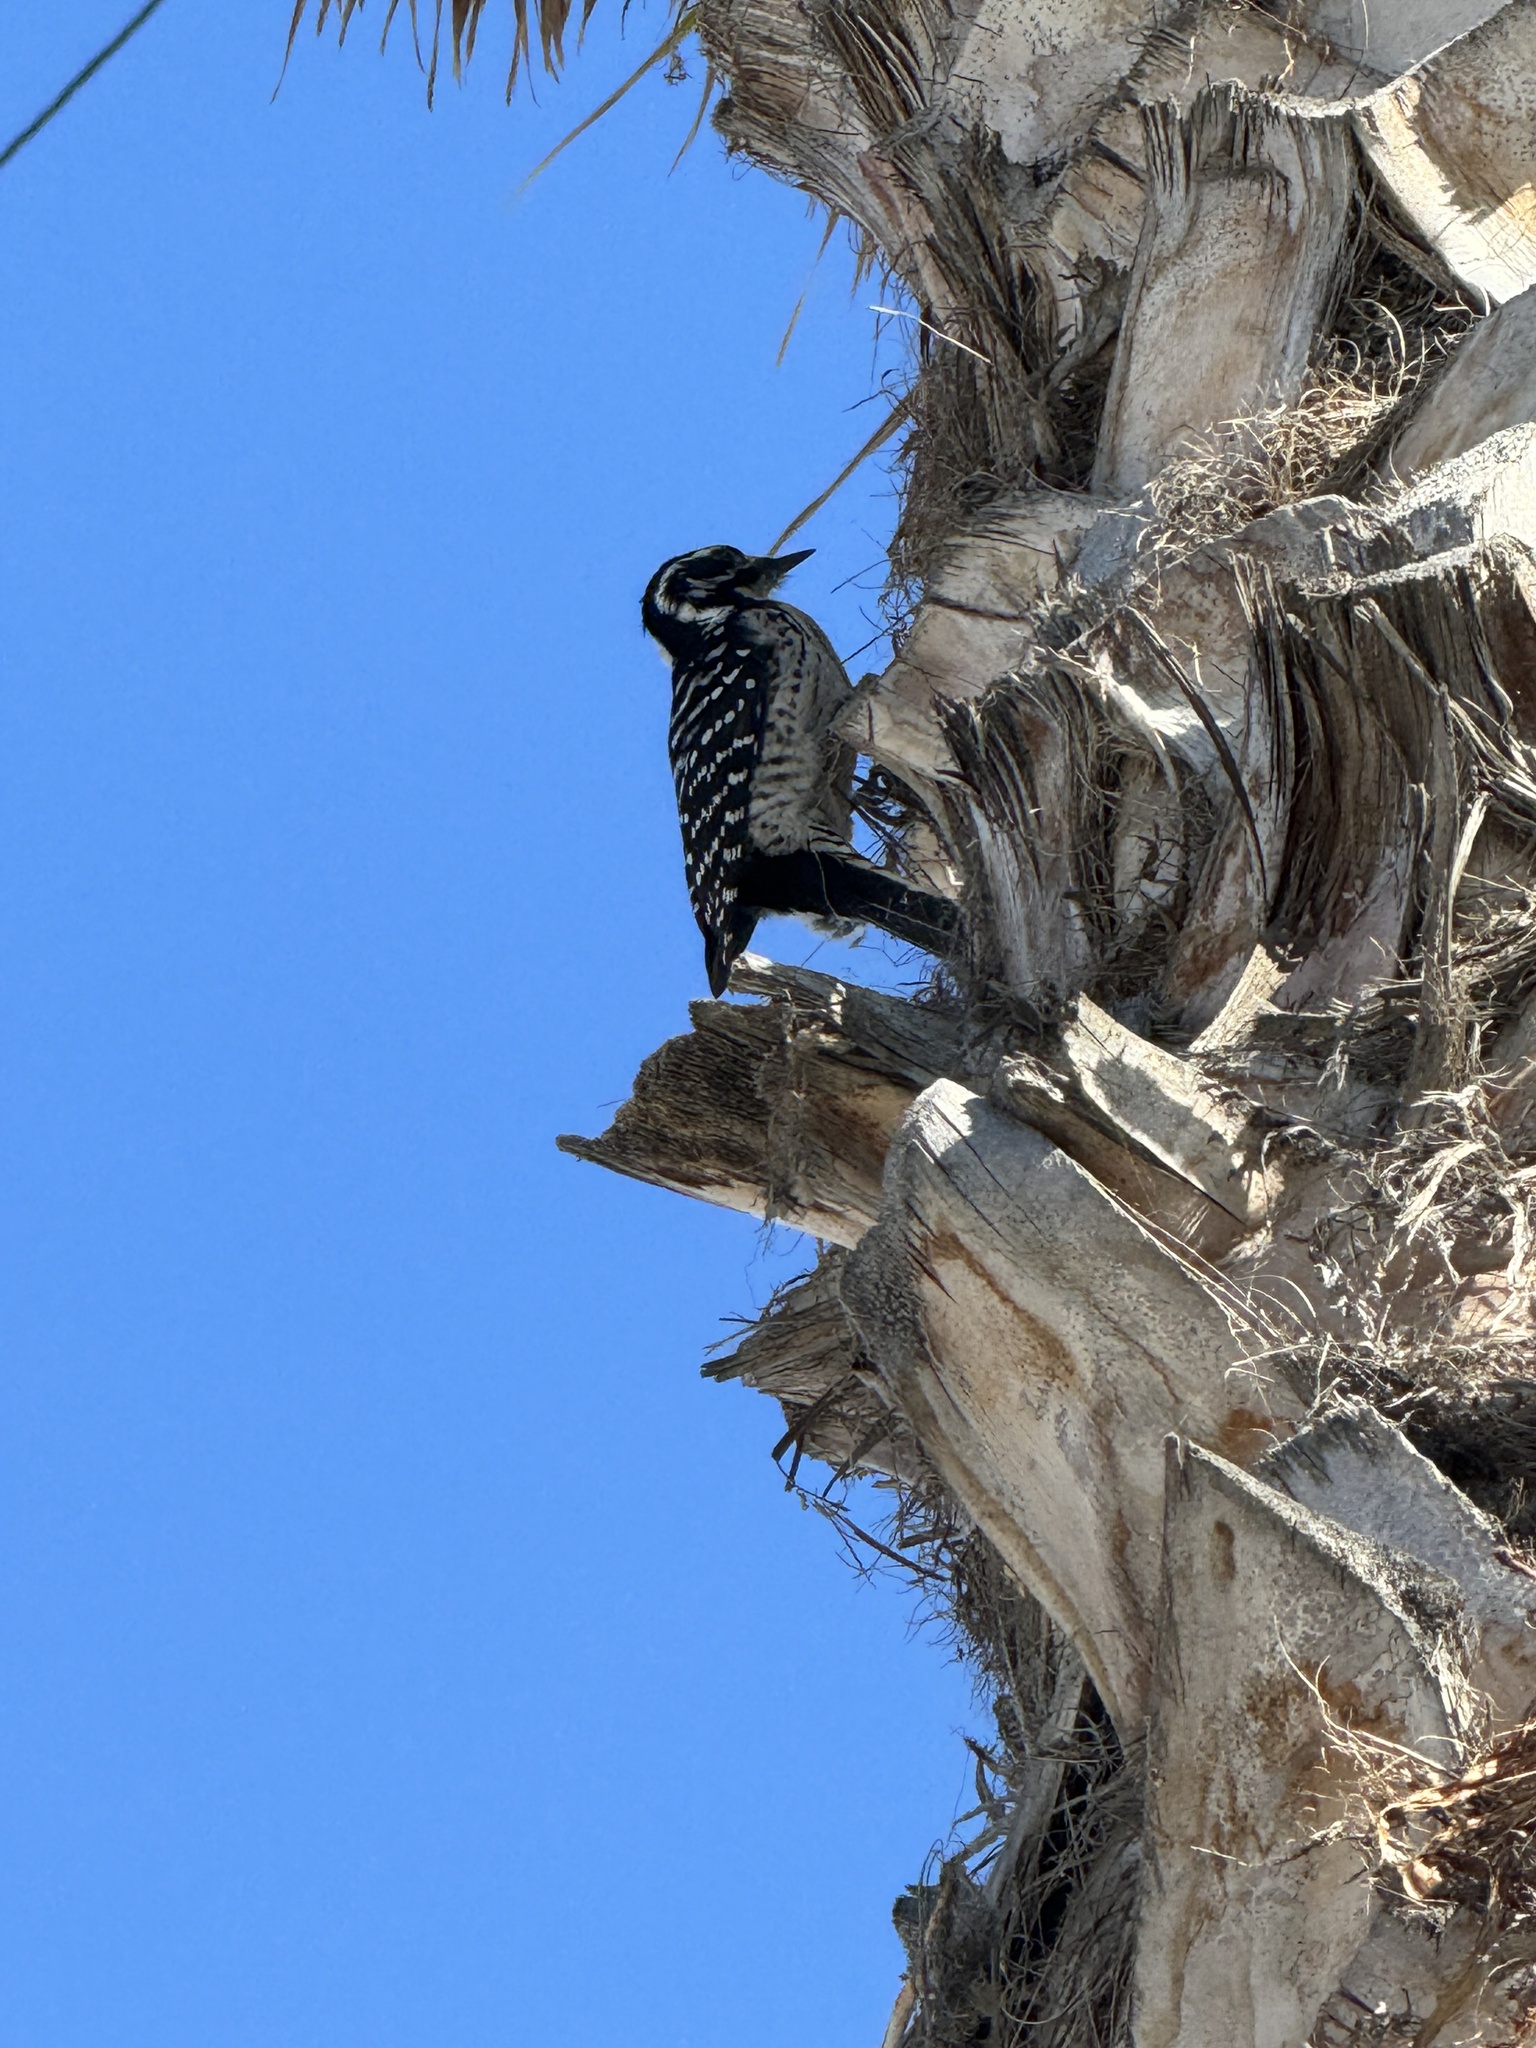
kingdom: Animalia
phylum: Chordata
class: Aves
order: Piciformes
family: Picidae
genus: Dryobates
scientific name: Dryobates nuttallii
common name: Nuttall's woodpecker
